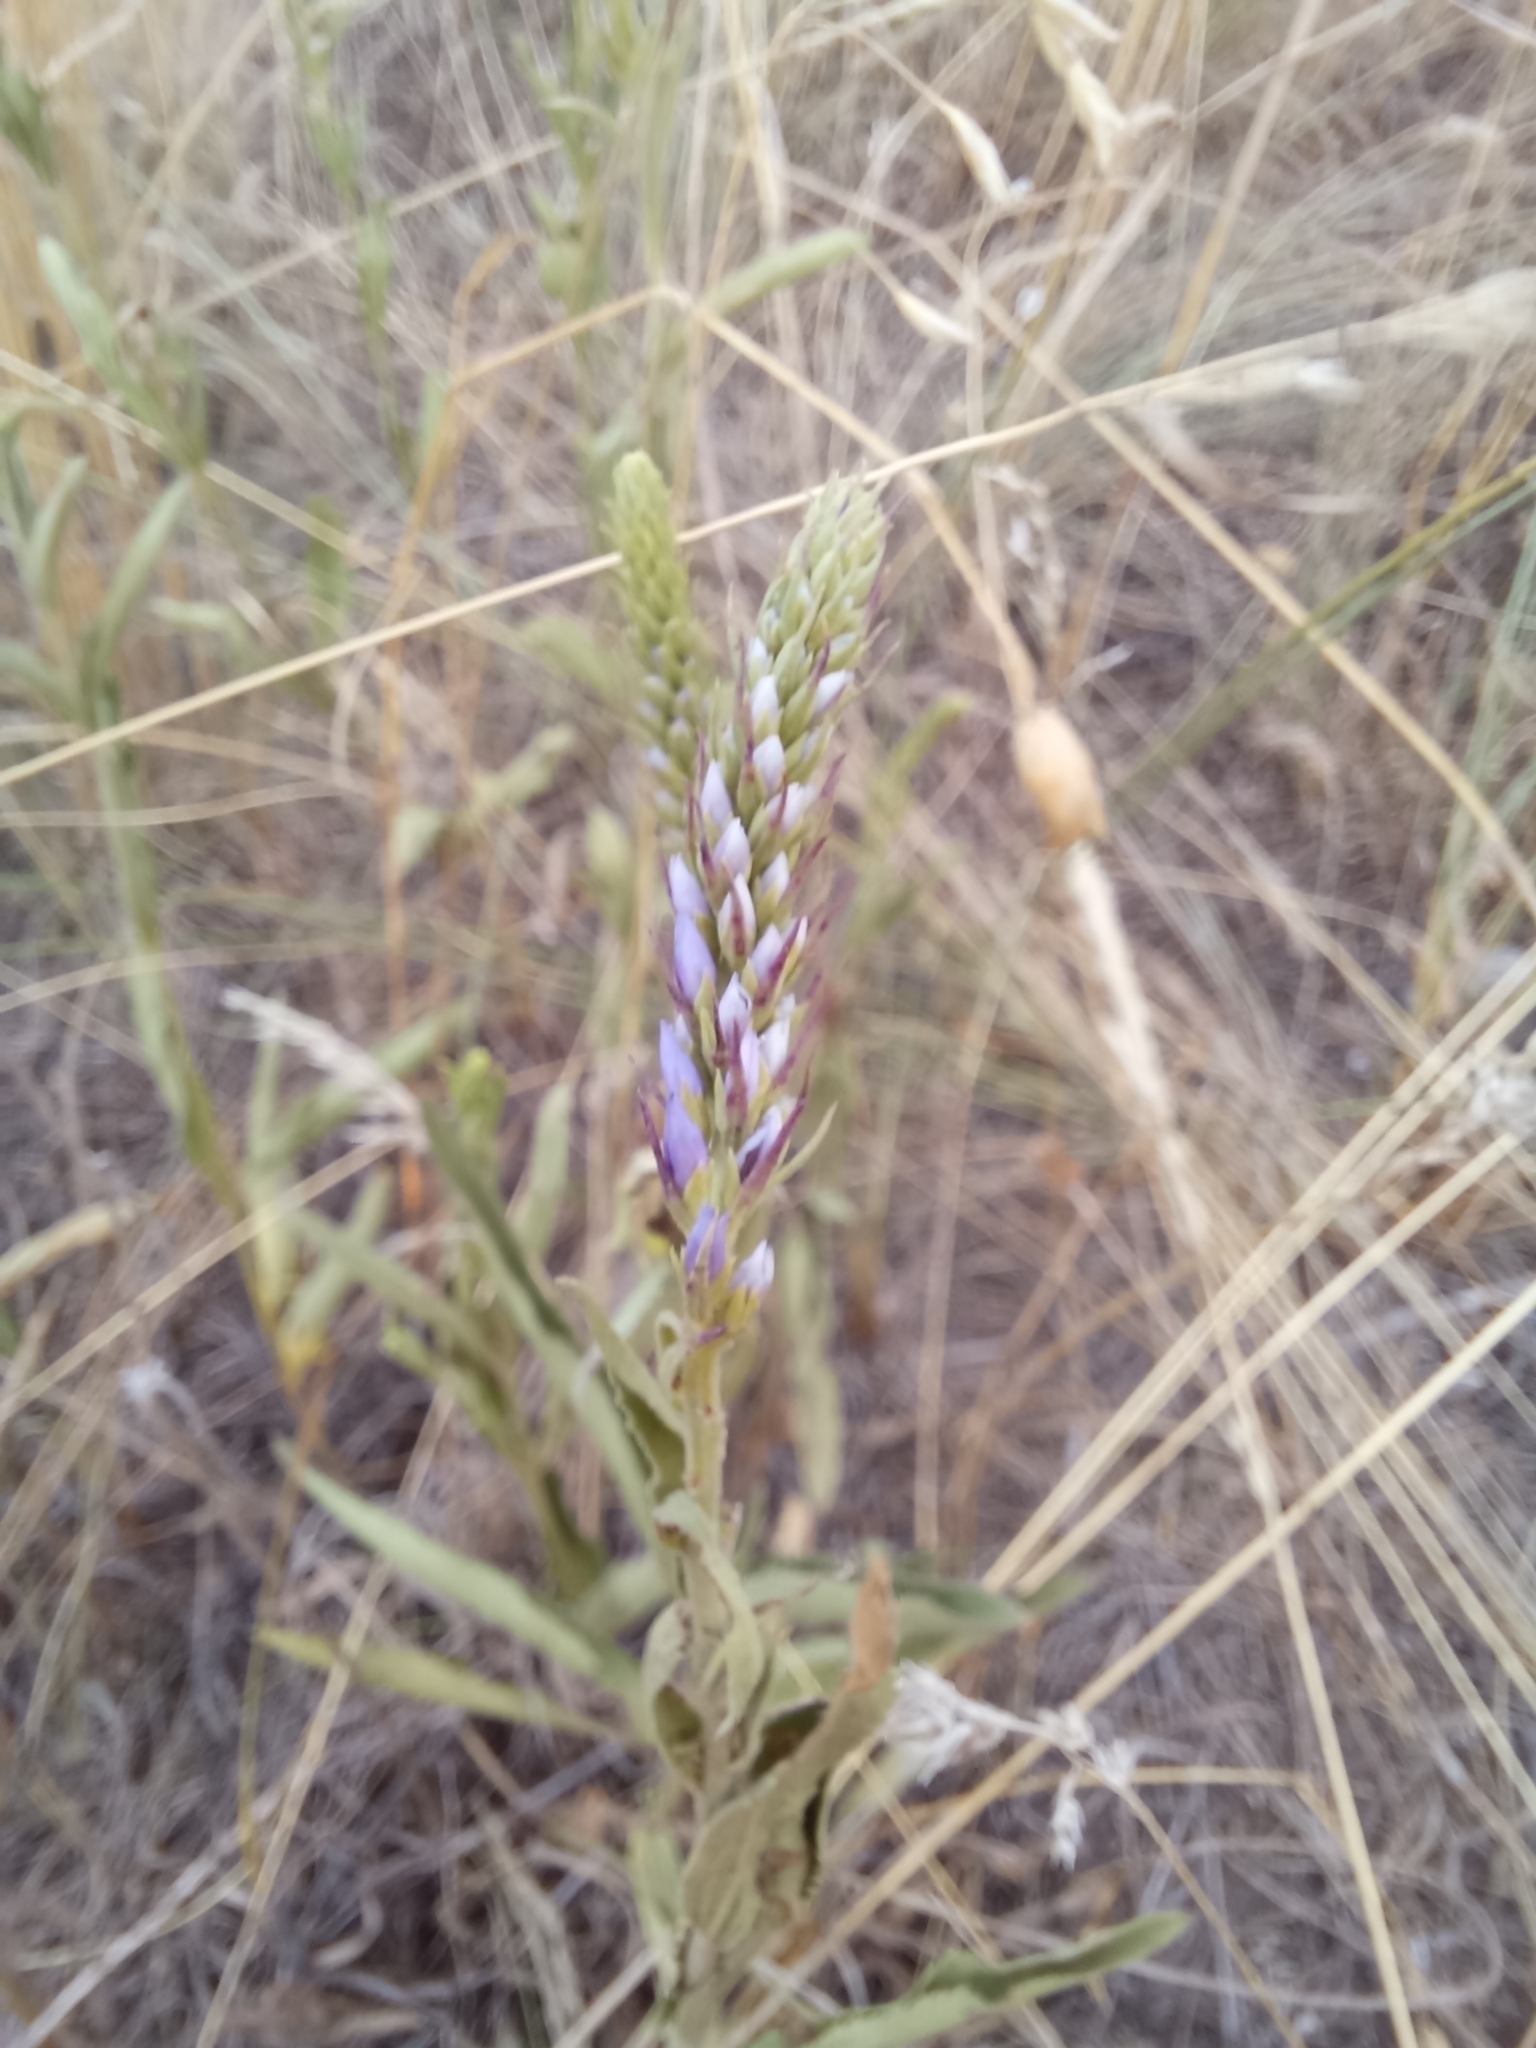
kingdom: Plantae
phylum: Tracheophyta
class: Magnoliopsida
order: Lamiales
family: Plantaginaceae
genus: Veronica
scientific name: Veronica barrelieri
